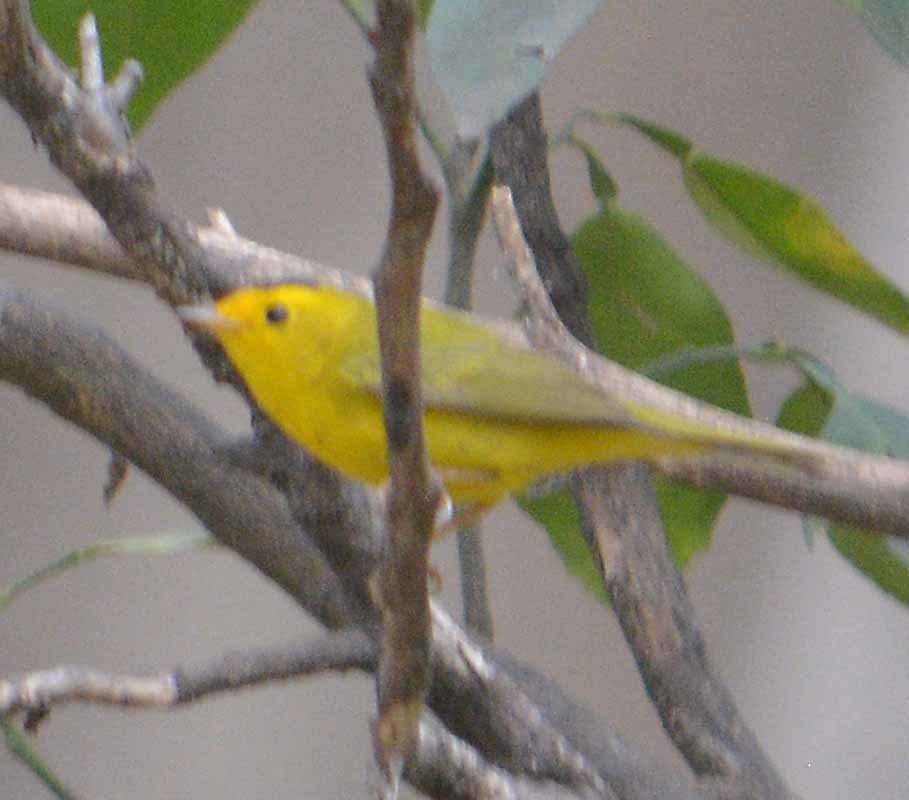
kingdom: Animalia
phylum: Chordata
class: Aves
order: Passeriformes
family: Parulidae
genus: Cardellina
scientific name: Cardellina pusilla
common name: Wilson's warbler
